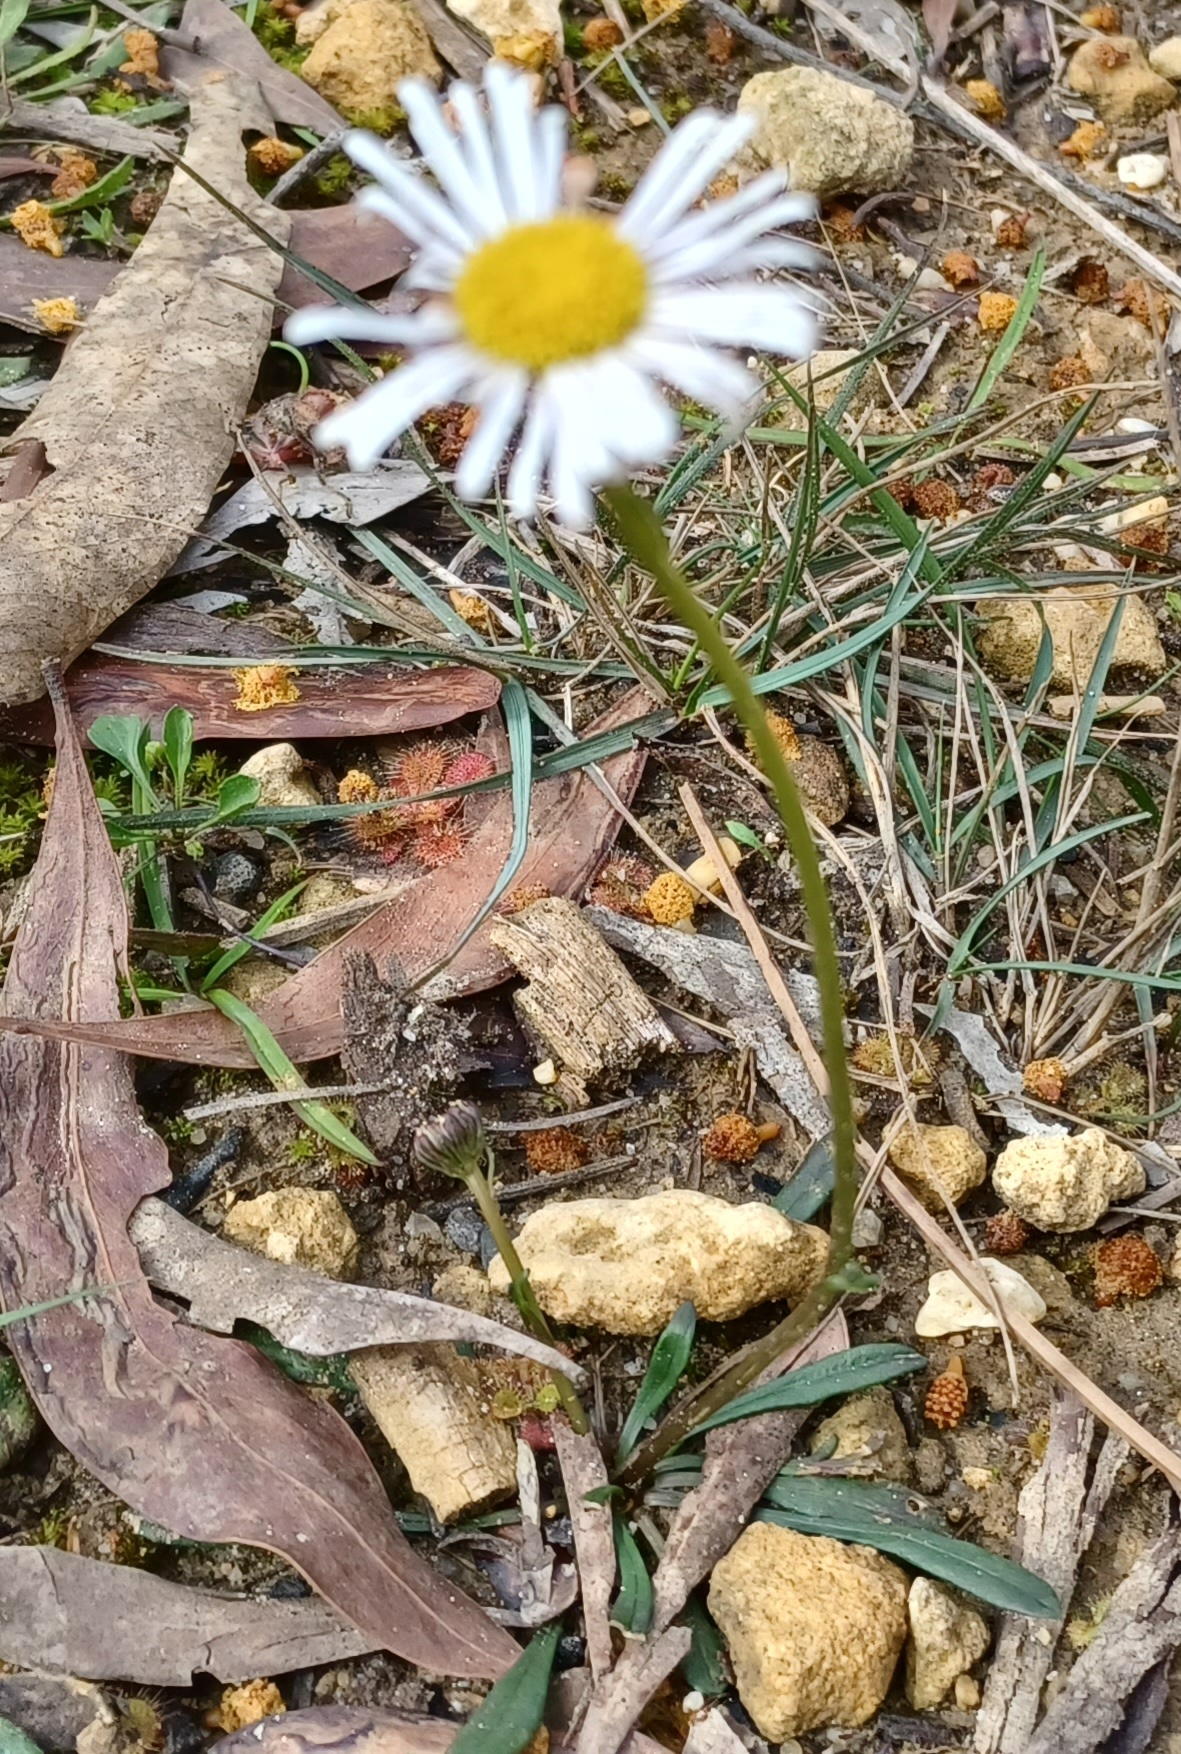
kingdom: Plantae
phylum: Tracheophyta
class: Magnoliopsida
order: Asterales
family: Asteraceae
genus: Allittia
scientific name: Allittia uliginosa
